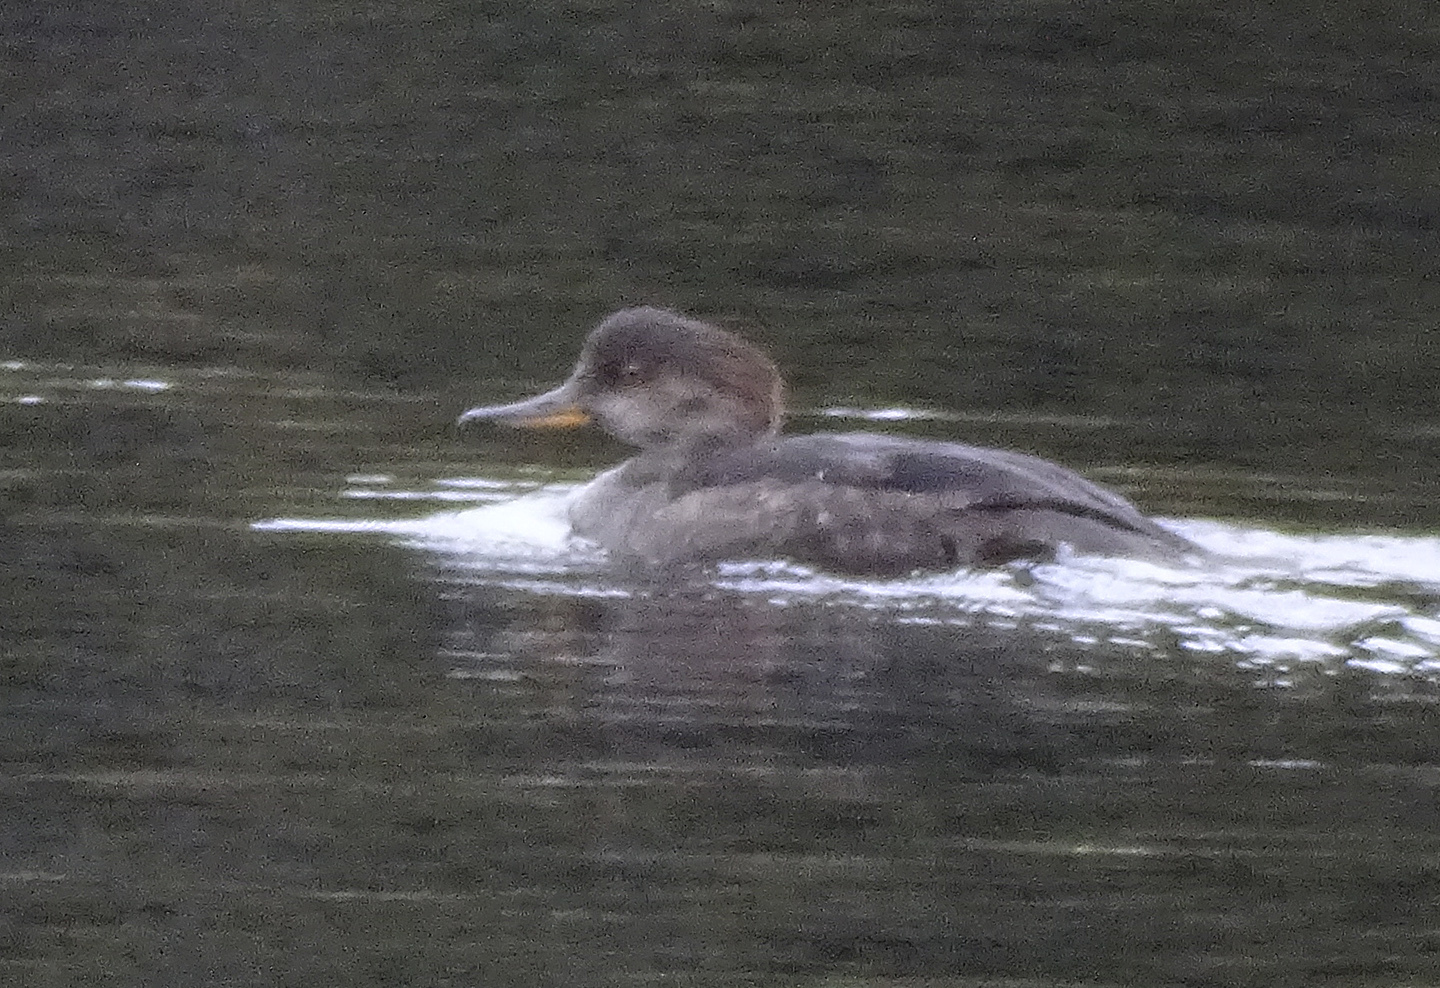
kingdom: Animalia
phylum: Chordata
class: Aves
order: Anseriformes
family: Anatidae
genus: Lophodytes
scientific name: Lophodytes cucullatus
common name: Hooded merganser
